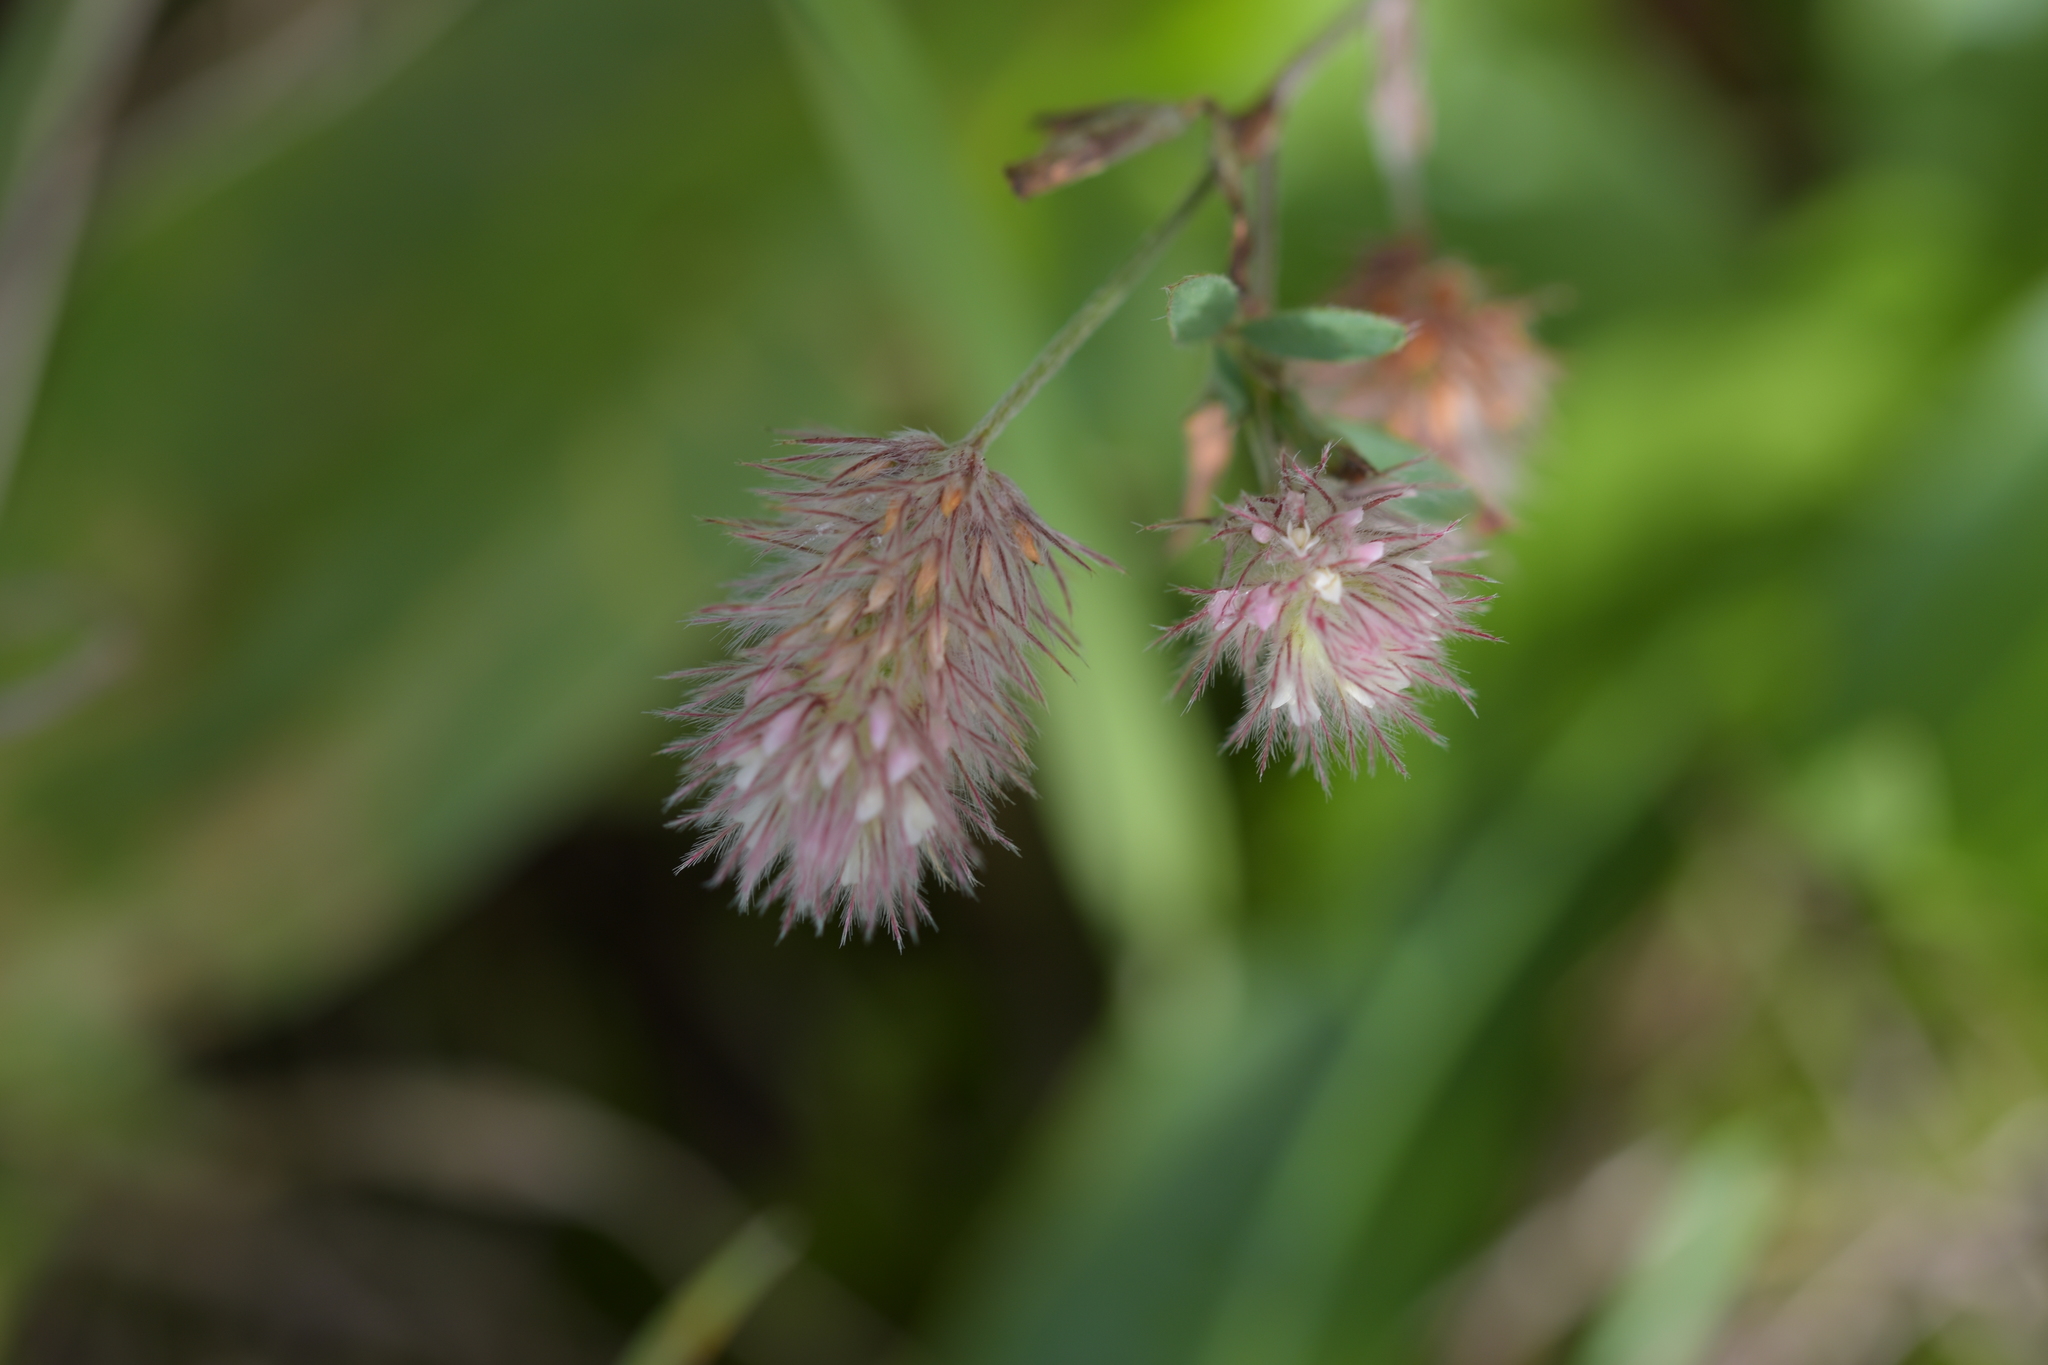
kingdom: Plantae
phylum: Tracheophyta
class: Magnoliopsida
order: Fabales
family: Fabaceae
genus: Trifolium
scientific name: Trifolium arvense
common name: Hare's-foot clover
